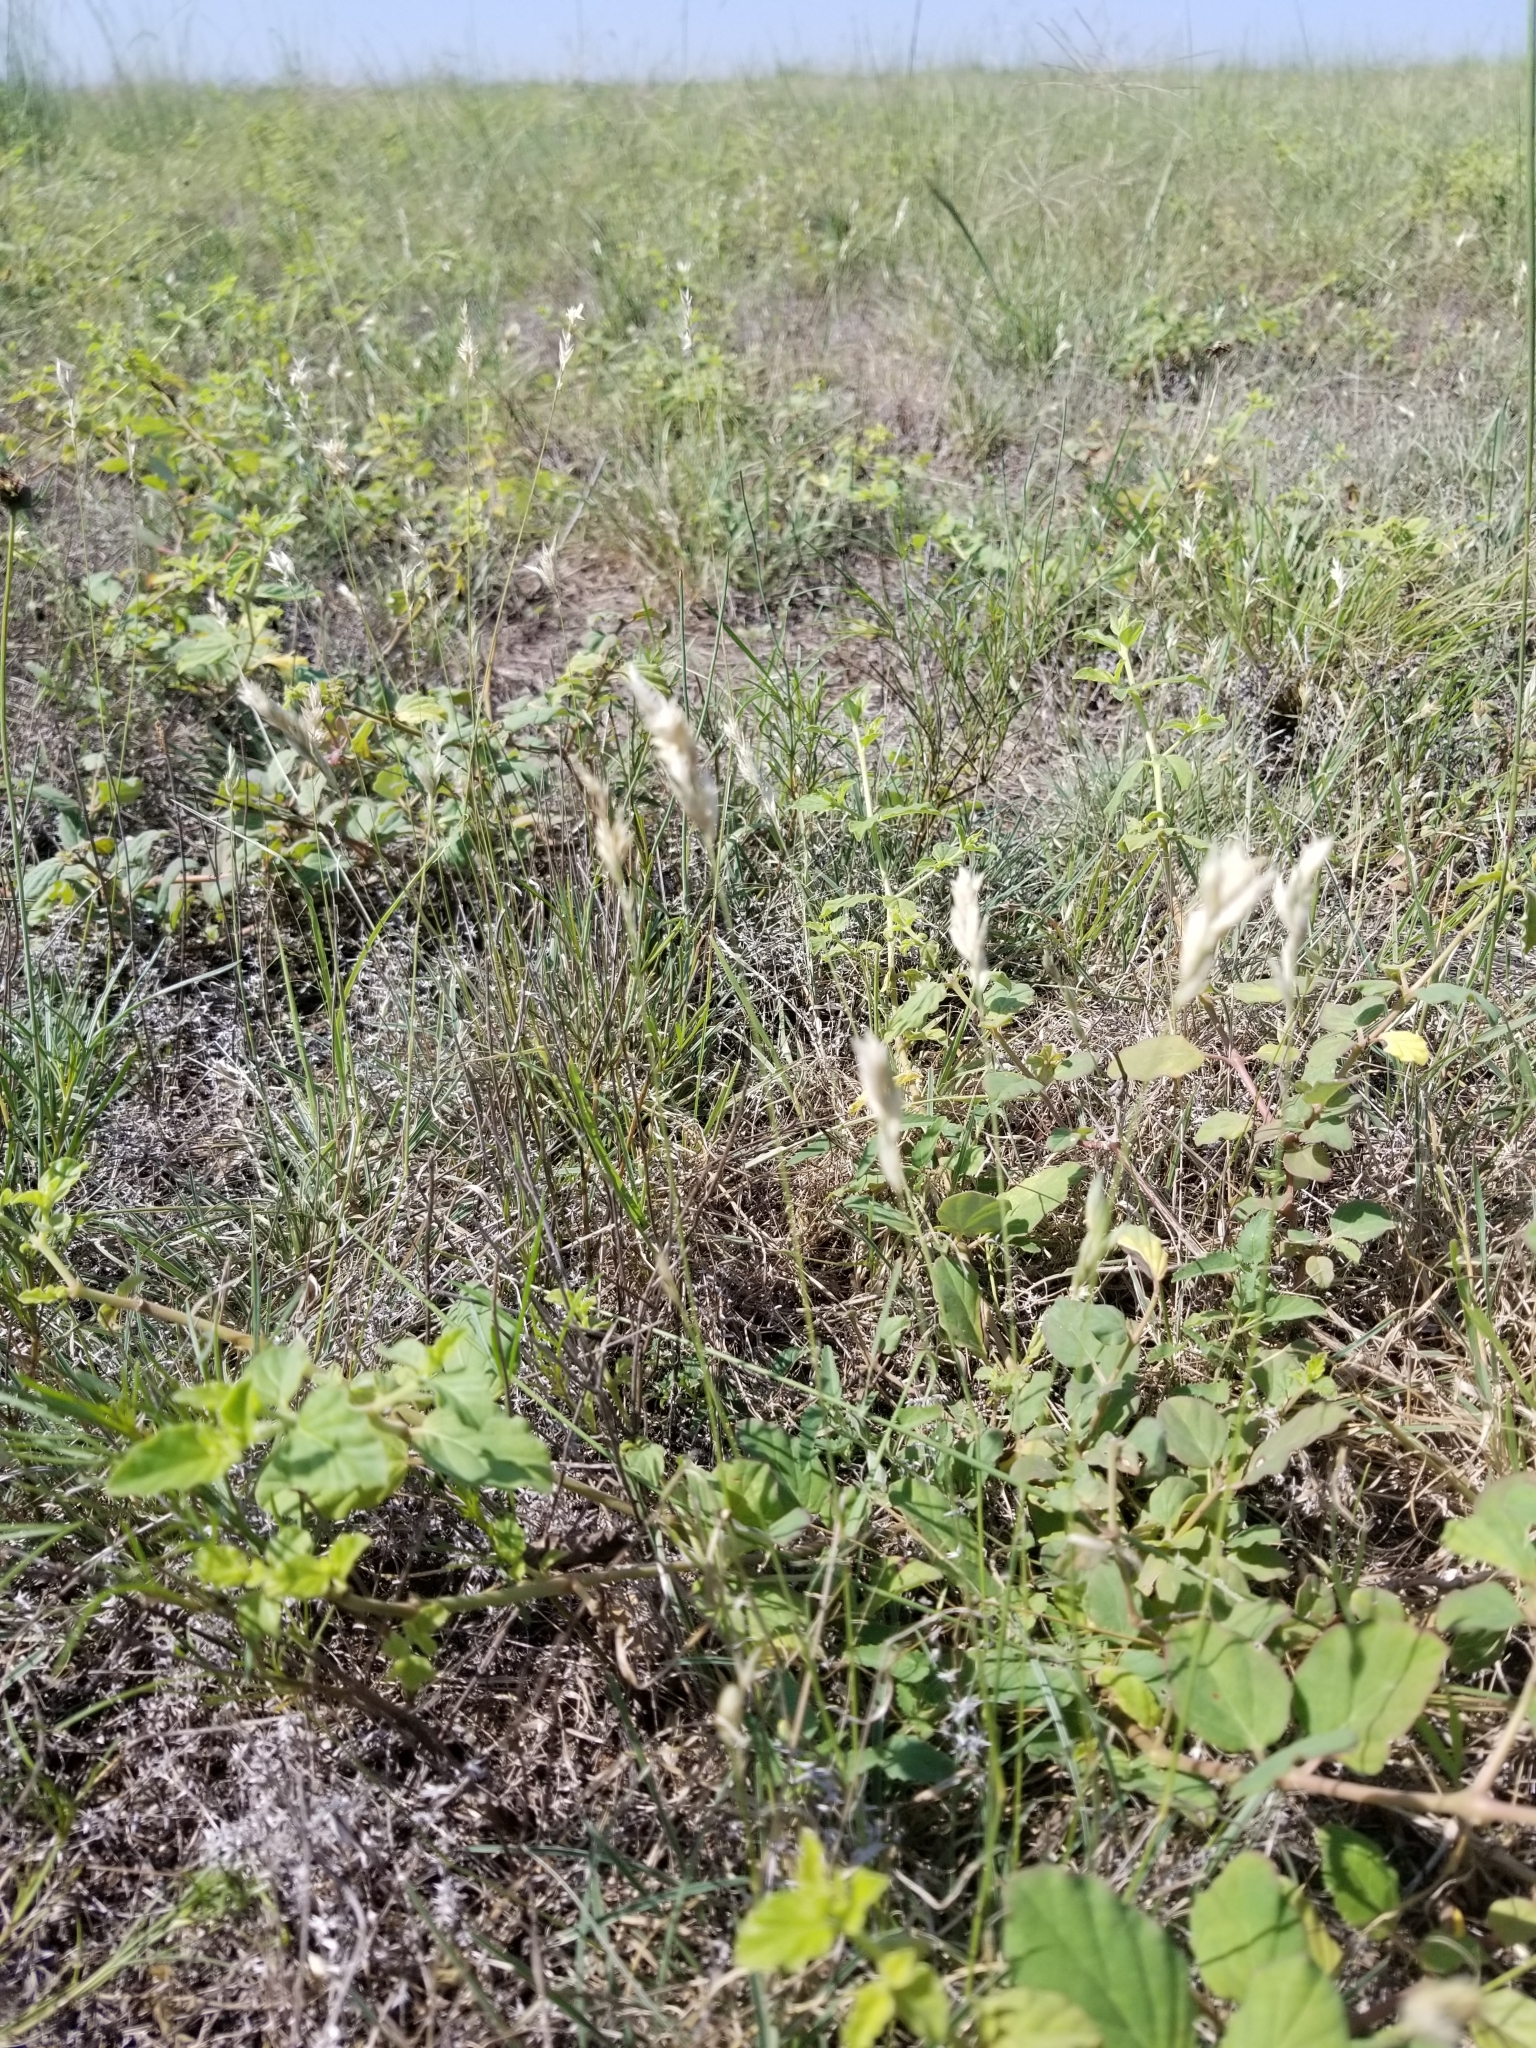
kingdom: Plantae
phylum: Tracheophyta
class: Liliopsida
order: Poales
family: Poaceae
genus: Erioneuron
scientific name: Erioneuron pilosum
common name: Hairy woolly grass
